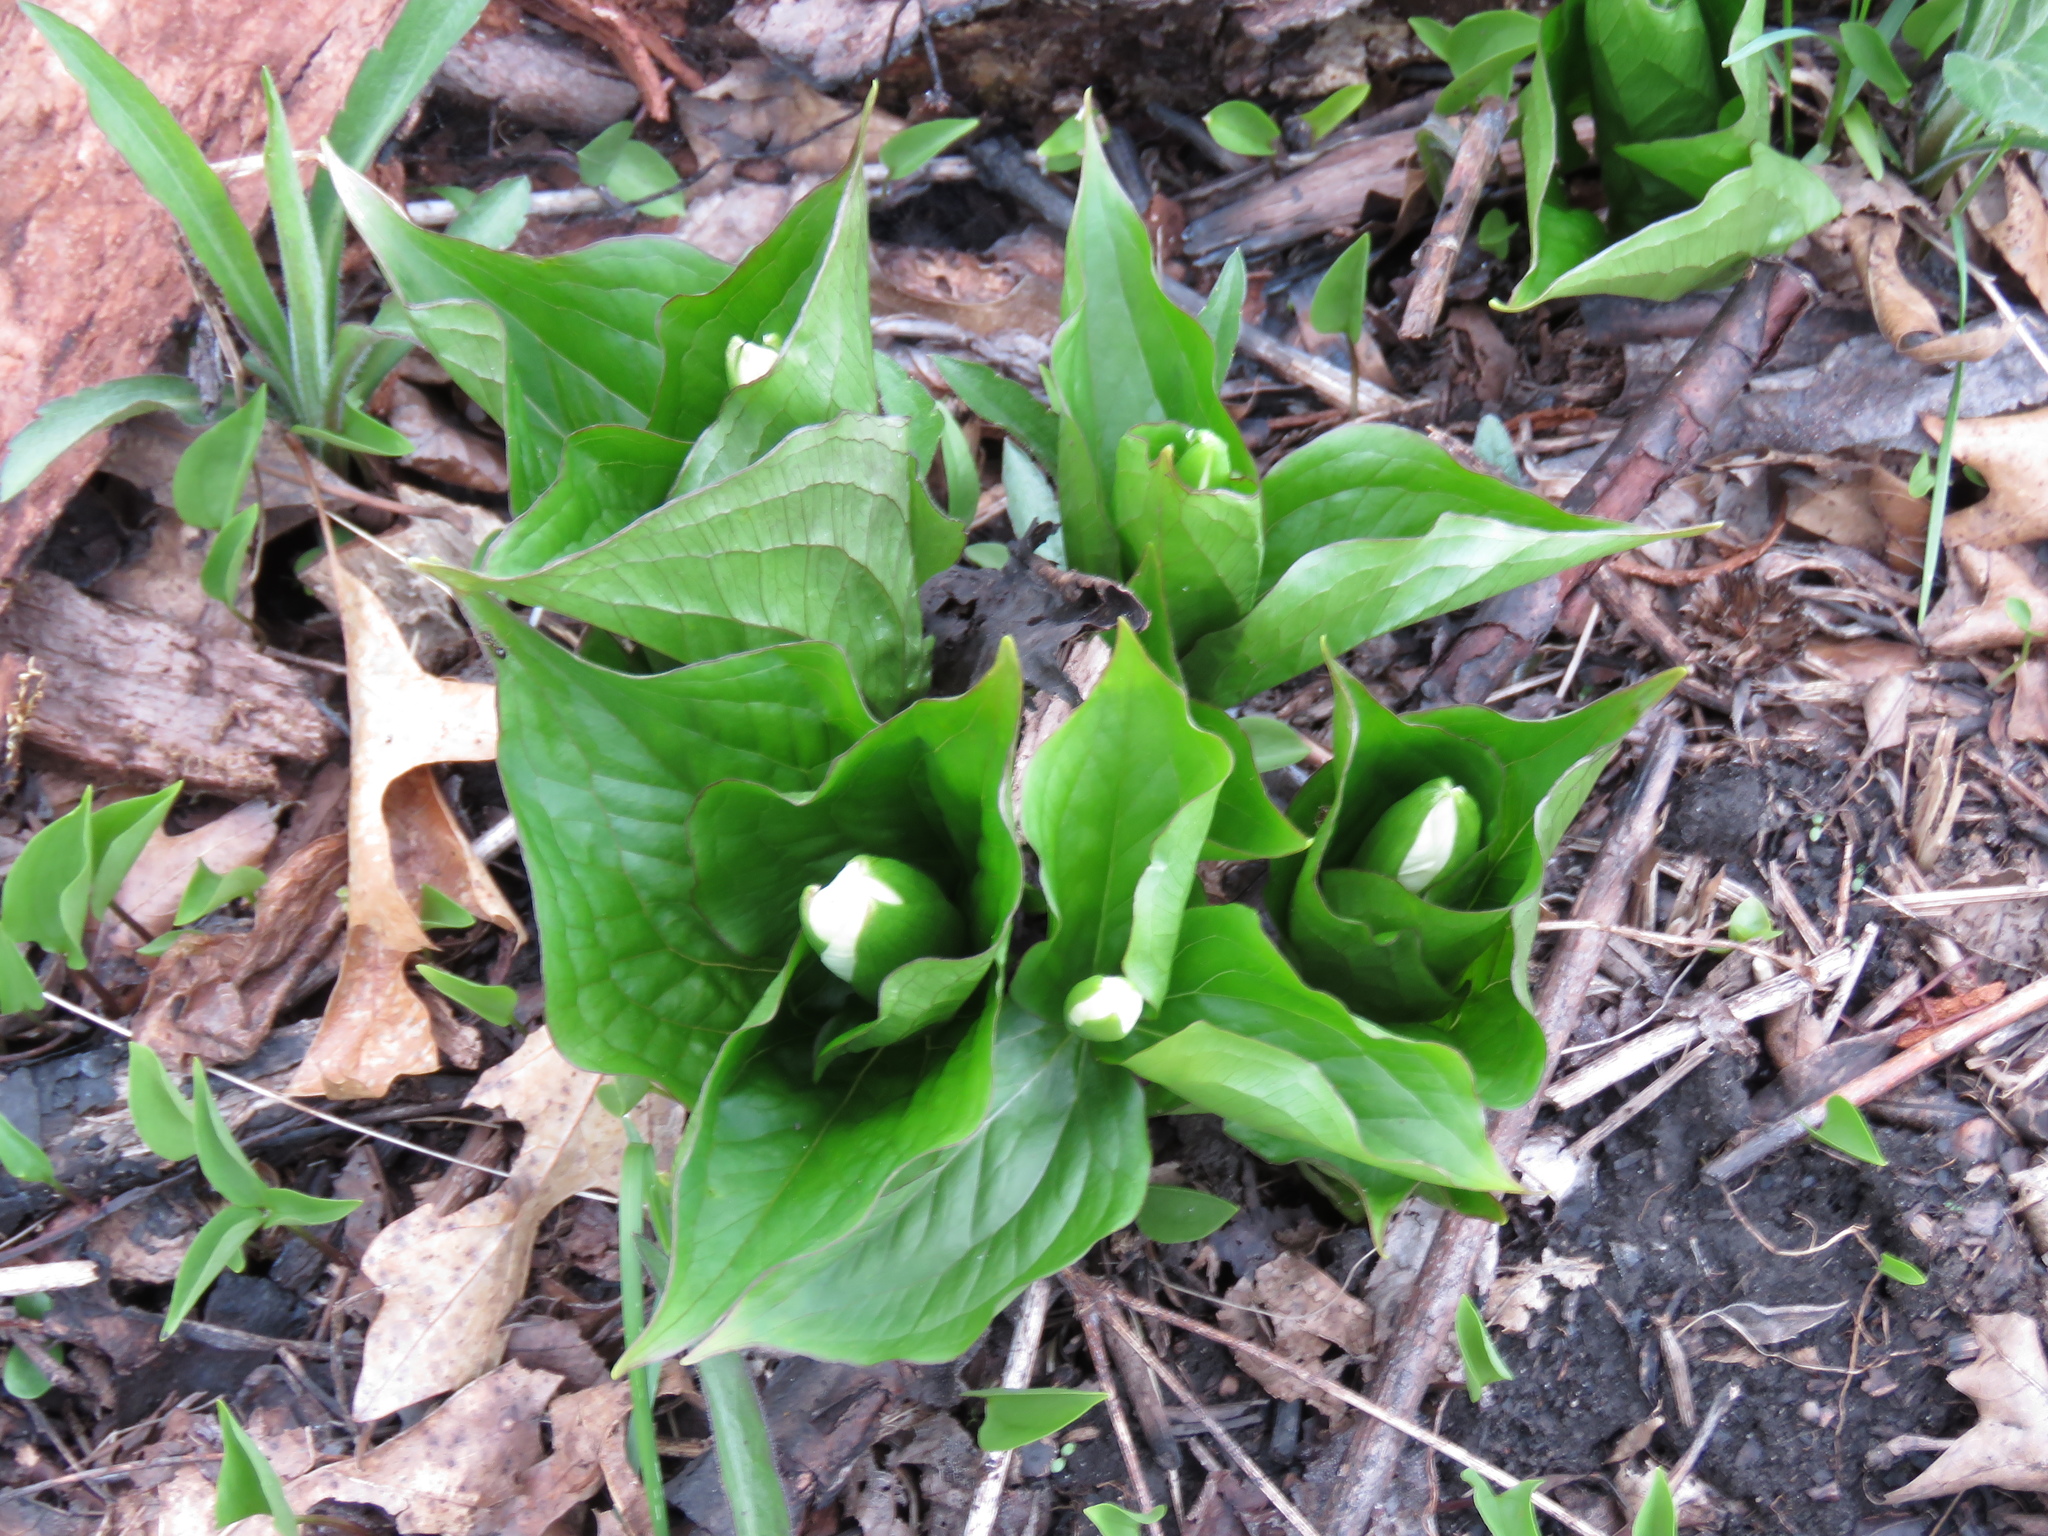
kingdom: Plantae
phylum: Tracheophyta
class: Liliopsida
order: Liliales
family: Melanthiaceae
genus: Trillium
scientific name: Trillium grandiflorum
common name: Great white trillium
